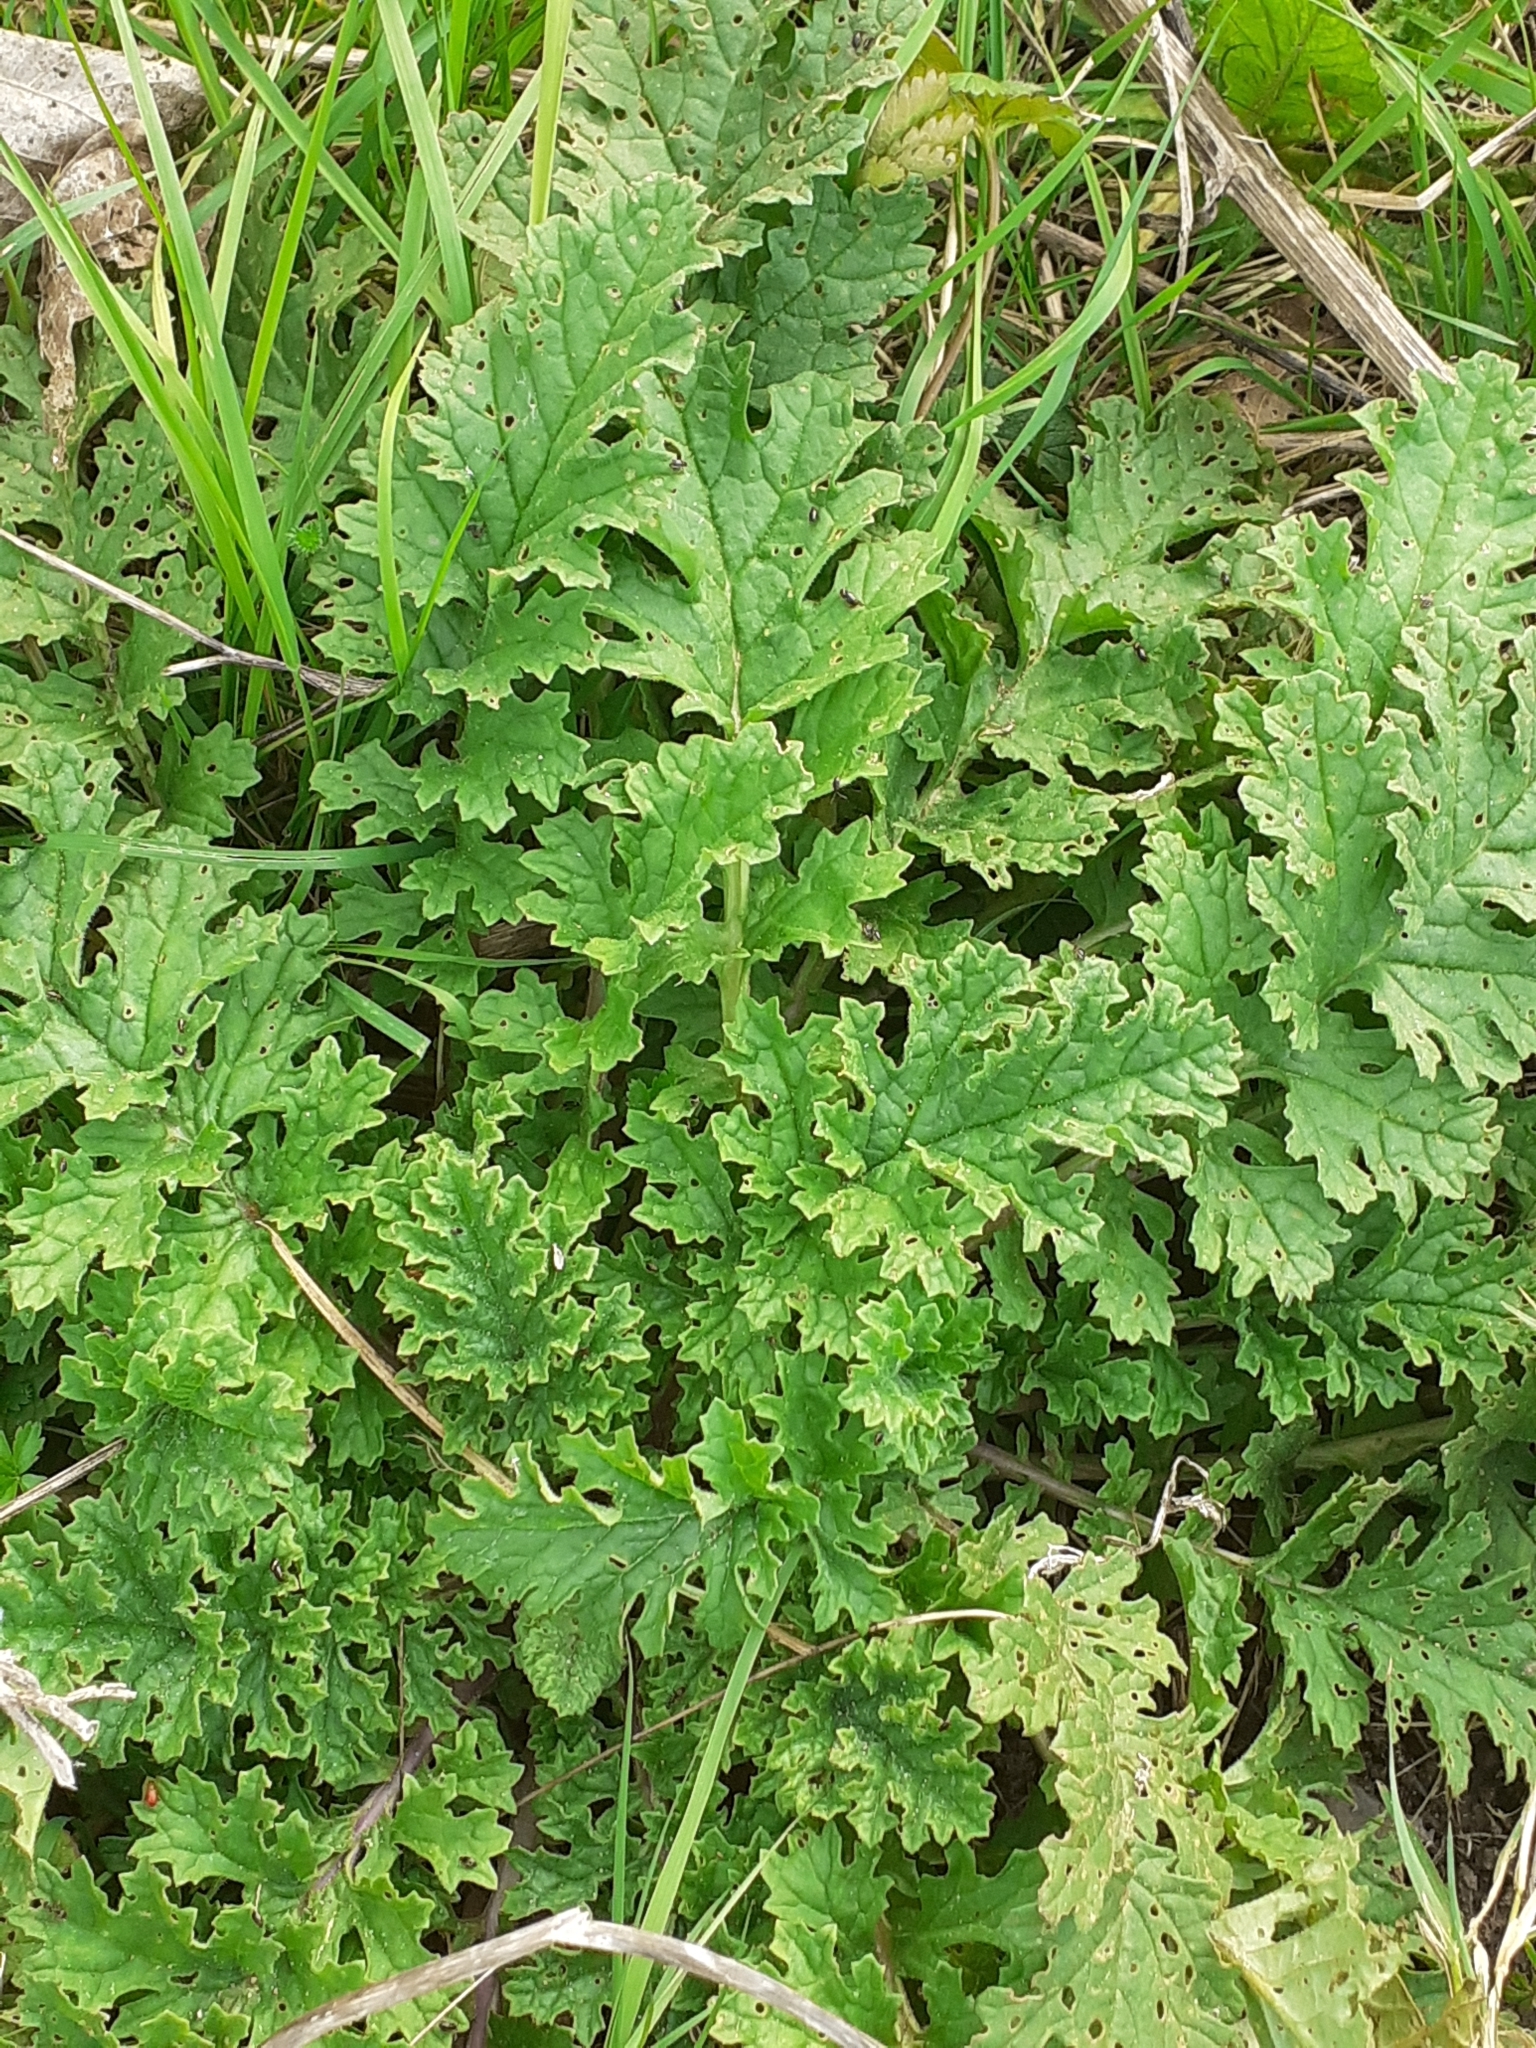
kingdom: Plantae
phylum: Tracheophyta
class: Magnoliopsida
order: Asterales
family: Asteraceae
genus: Jacobaea
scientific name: Jacobaea vulgaris
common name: Stinking willie
